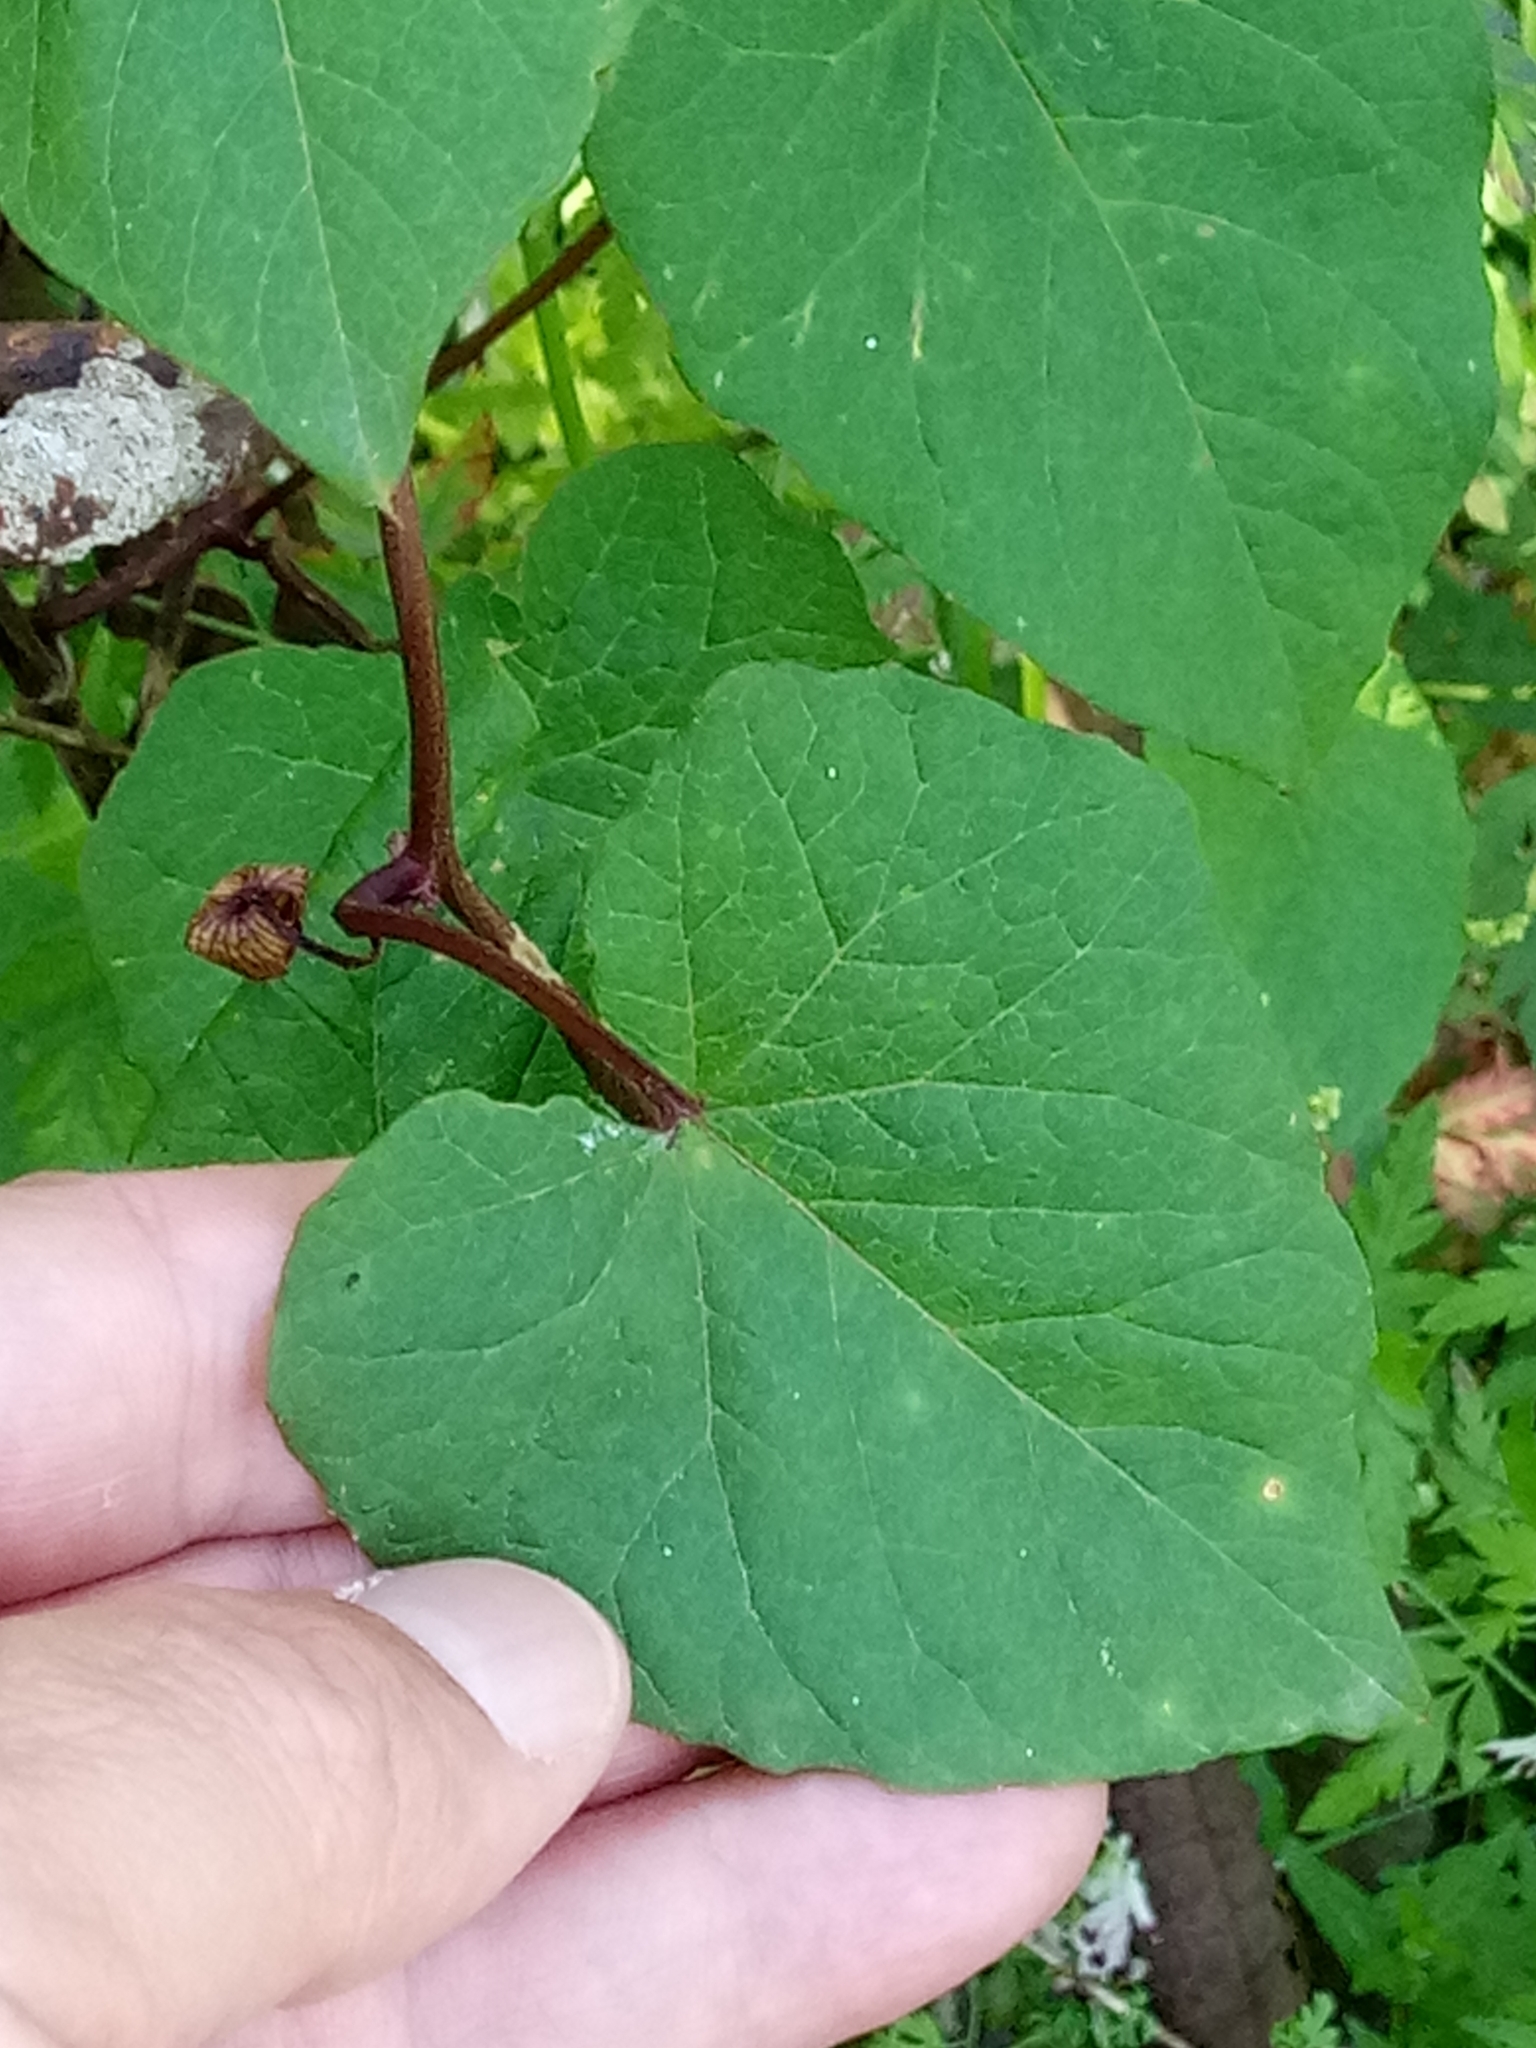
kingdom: Plantae
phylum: Tracheophyta
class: Magnoliopsida
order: Solanales
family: Convolvulaceae
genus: Calystegia
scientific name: Calystegia silvatica
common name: Large bindweed
